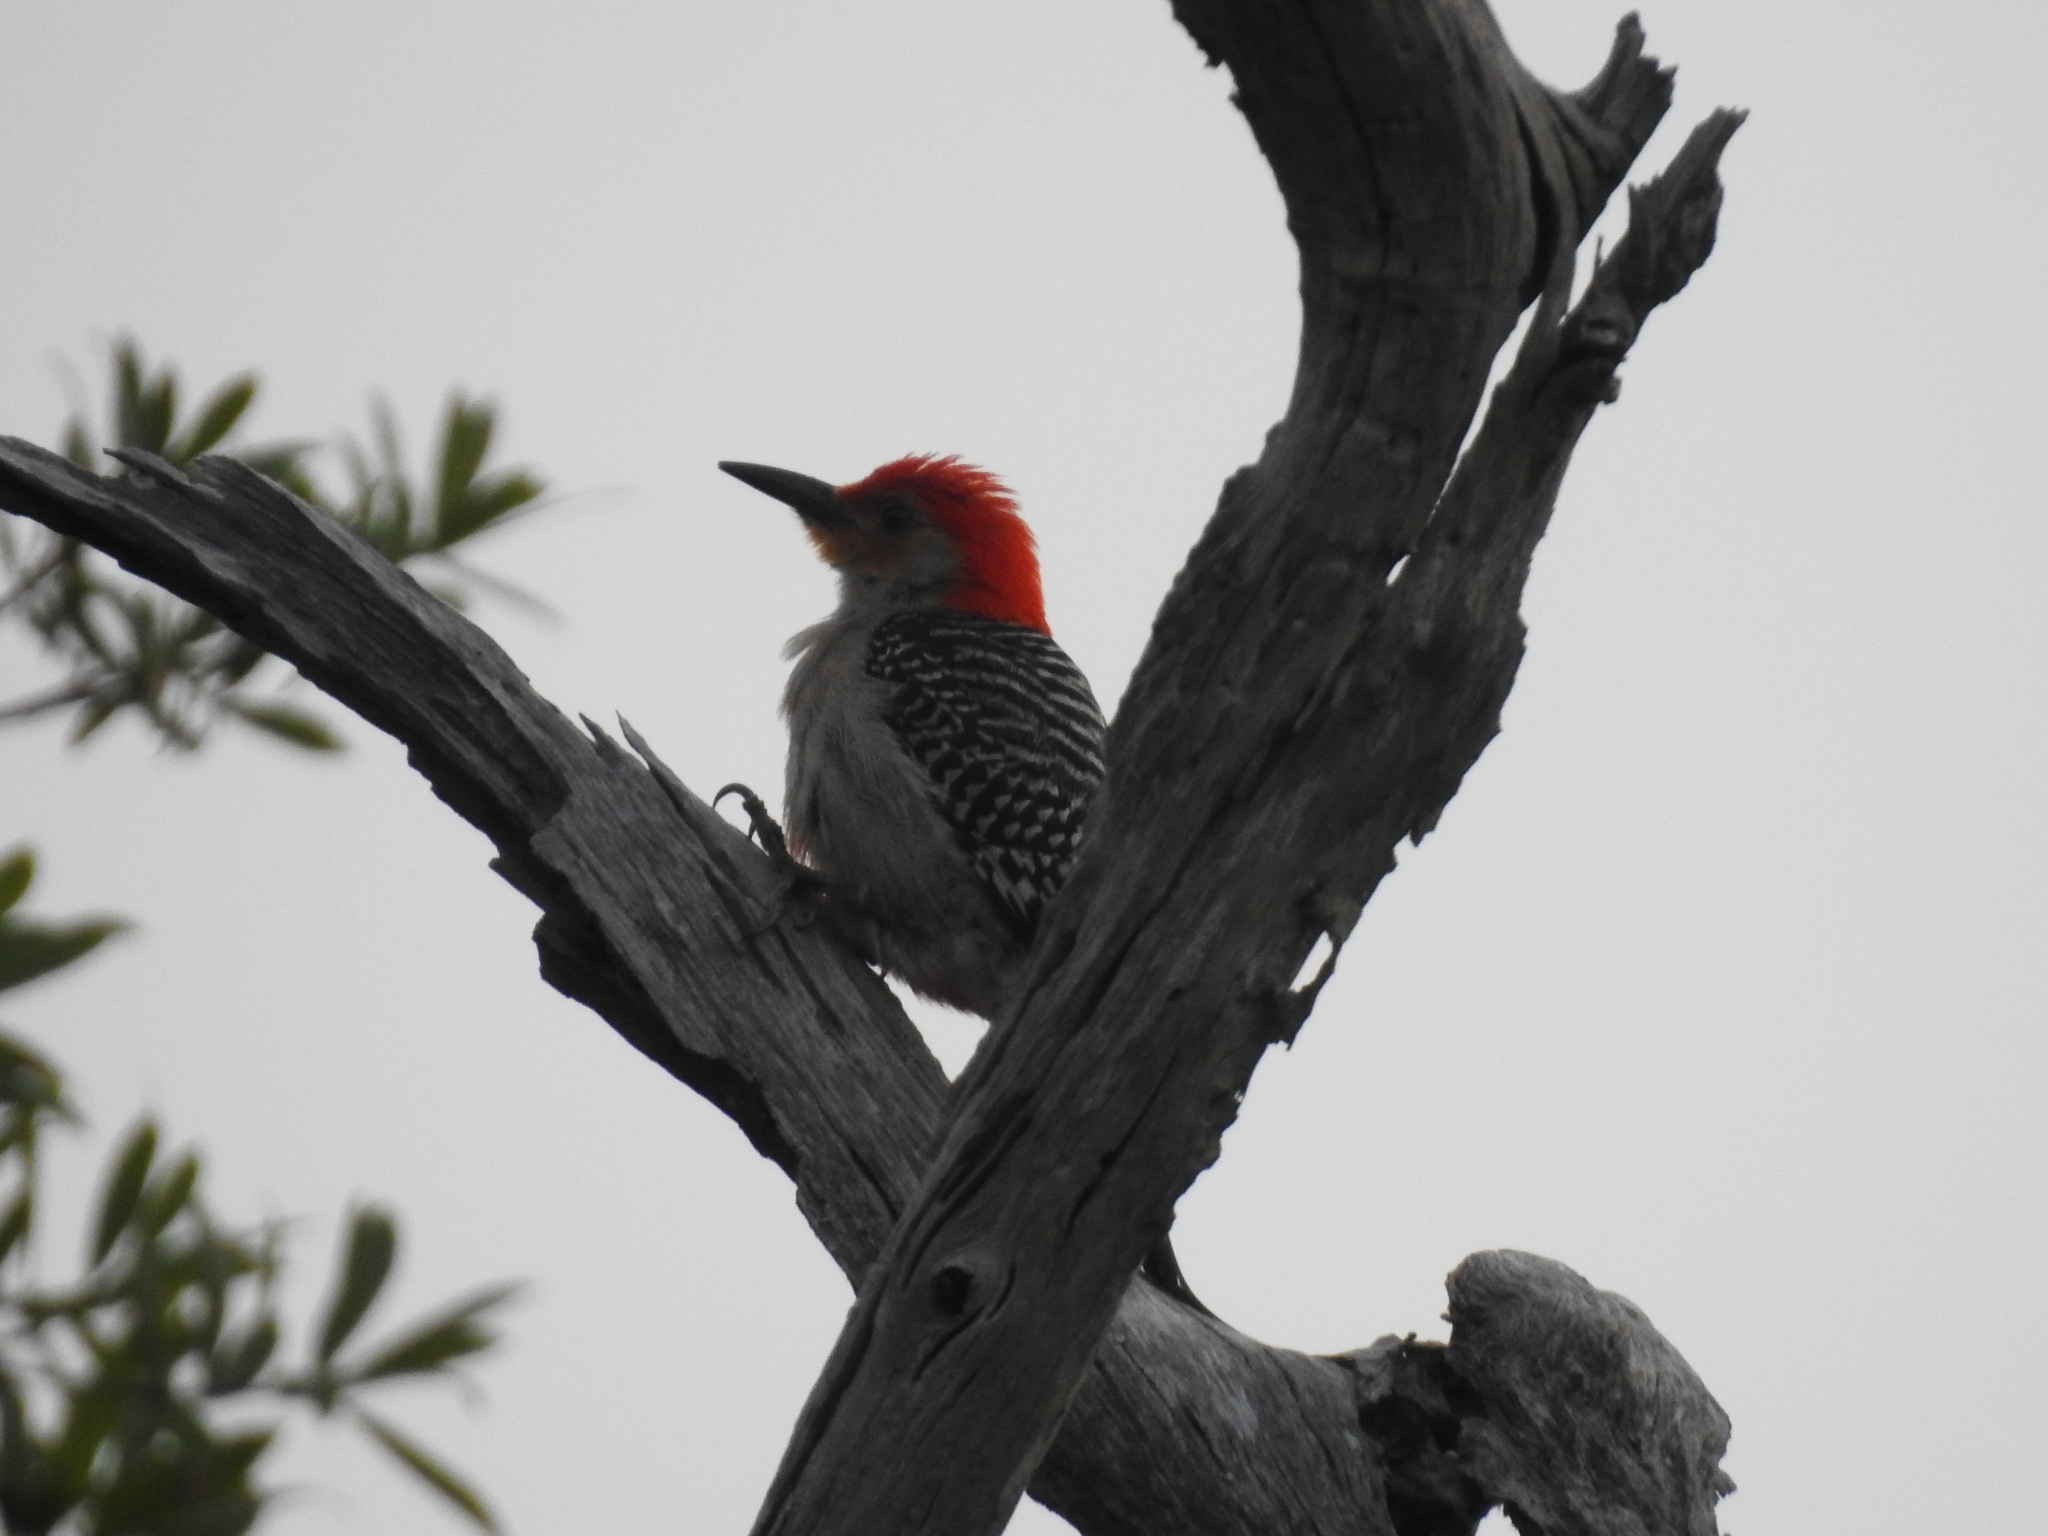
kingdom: Animalia
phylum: Chordata
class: Aves
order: Piciformes
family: Picidae
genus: Melanerpes
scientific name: Melanerpes carolinus
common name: Red-bellied woodpecker
